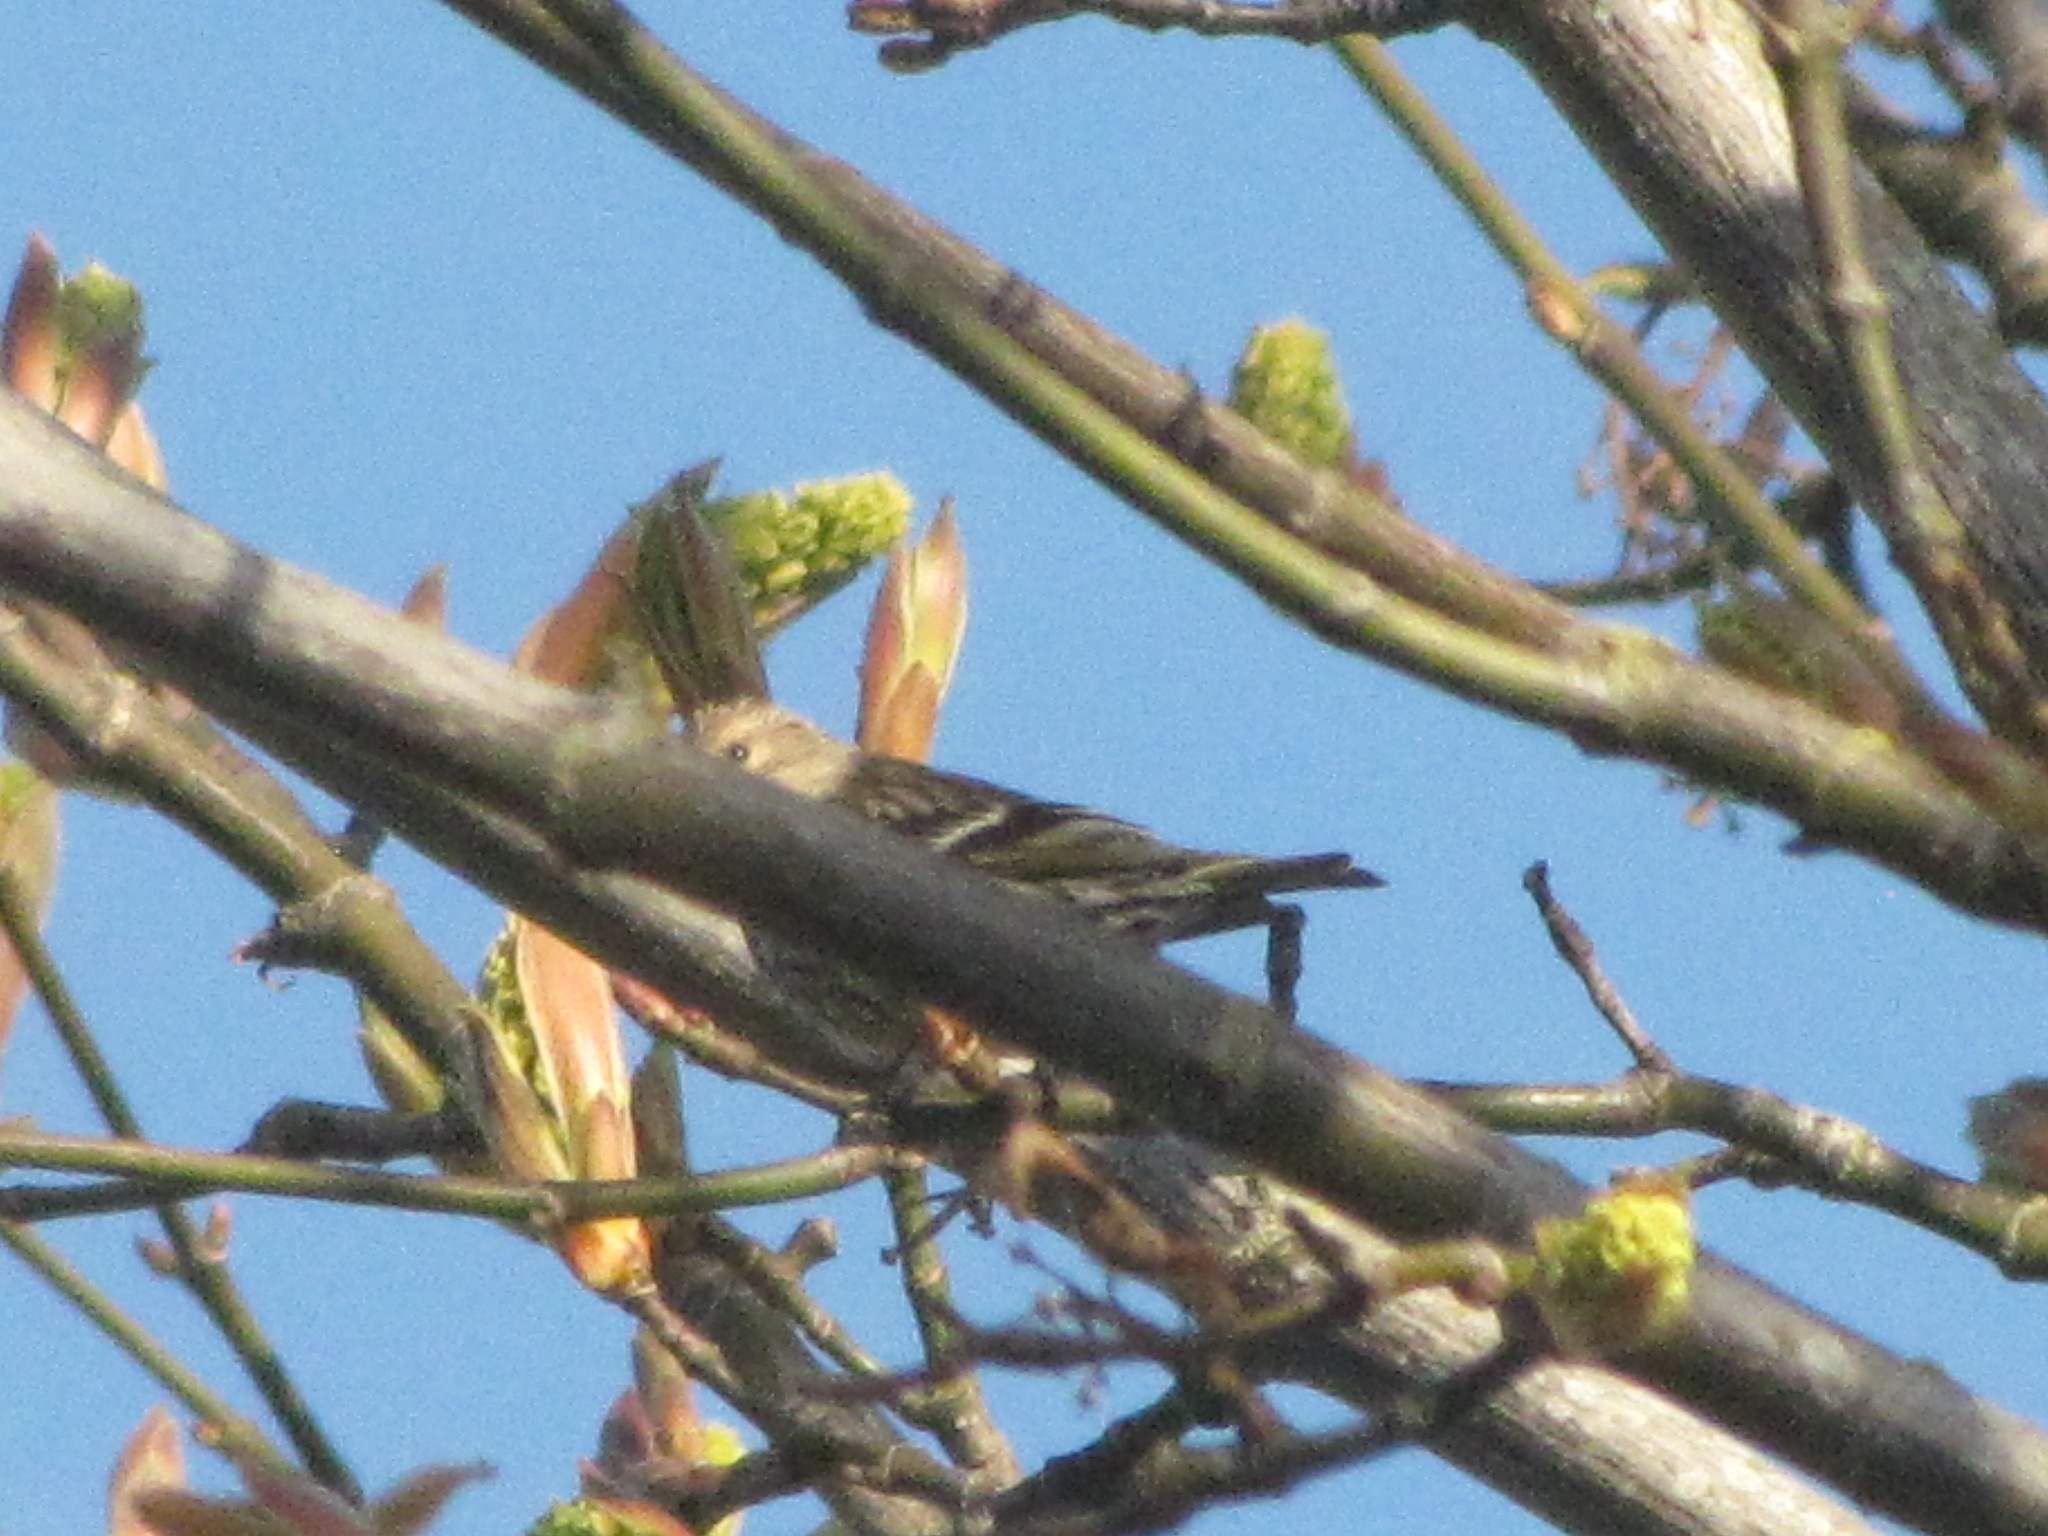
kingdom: Animalia
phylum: Chordata
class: Aves
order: Passeriformes
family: Fringillidae
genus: Spinus
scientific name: Spinus pinus
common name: Pine siskin
